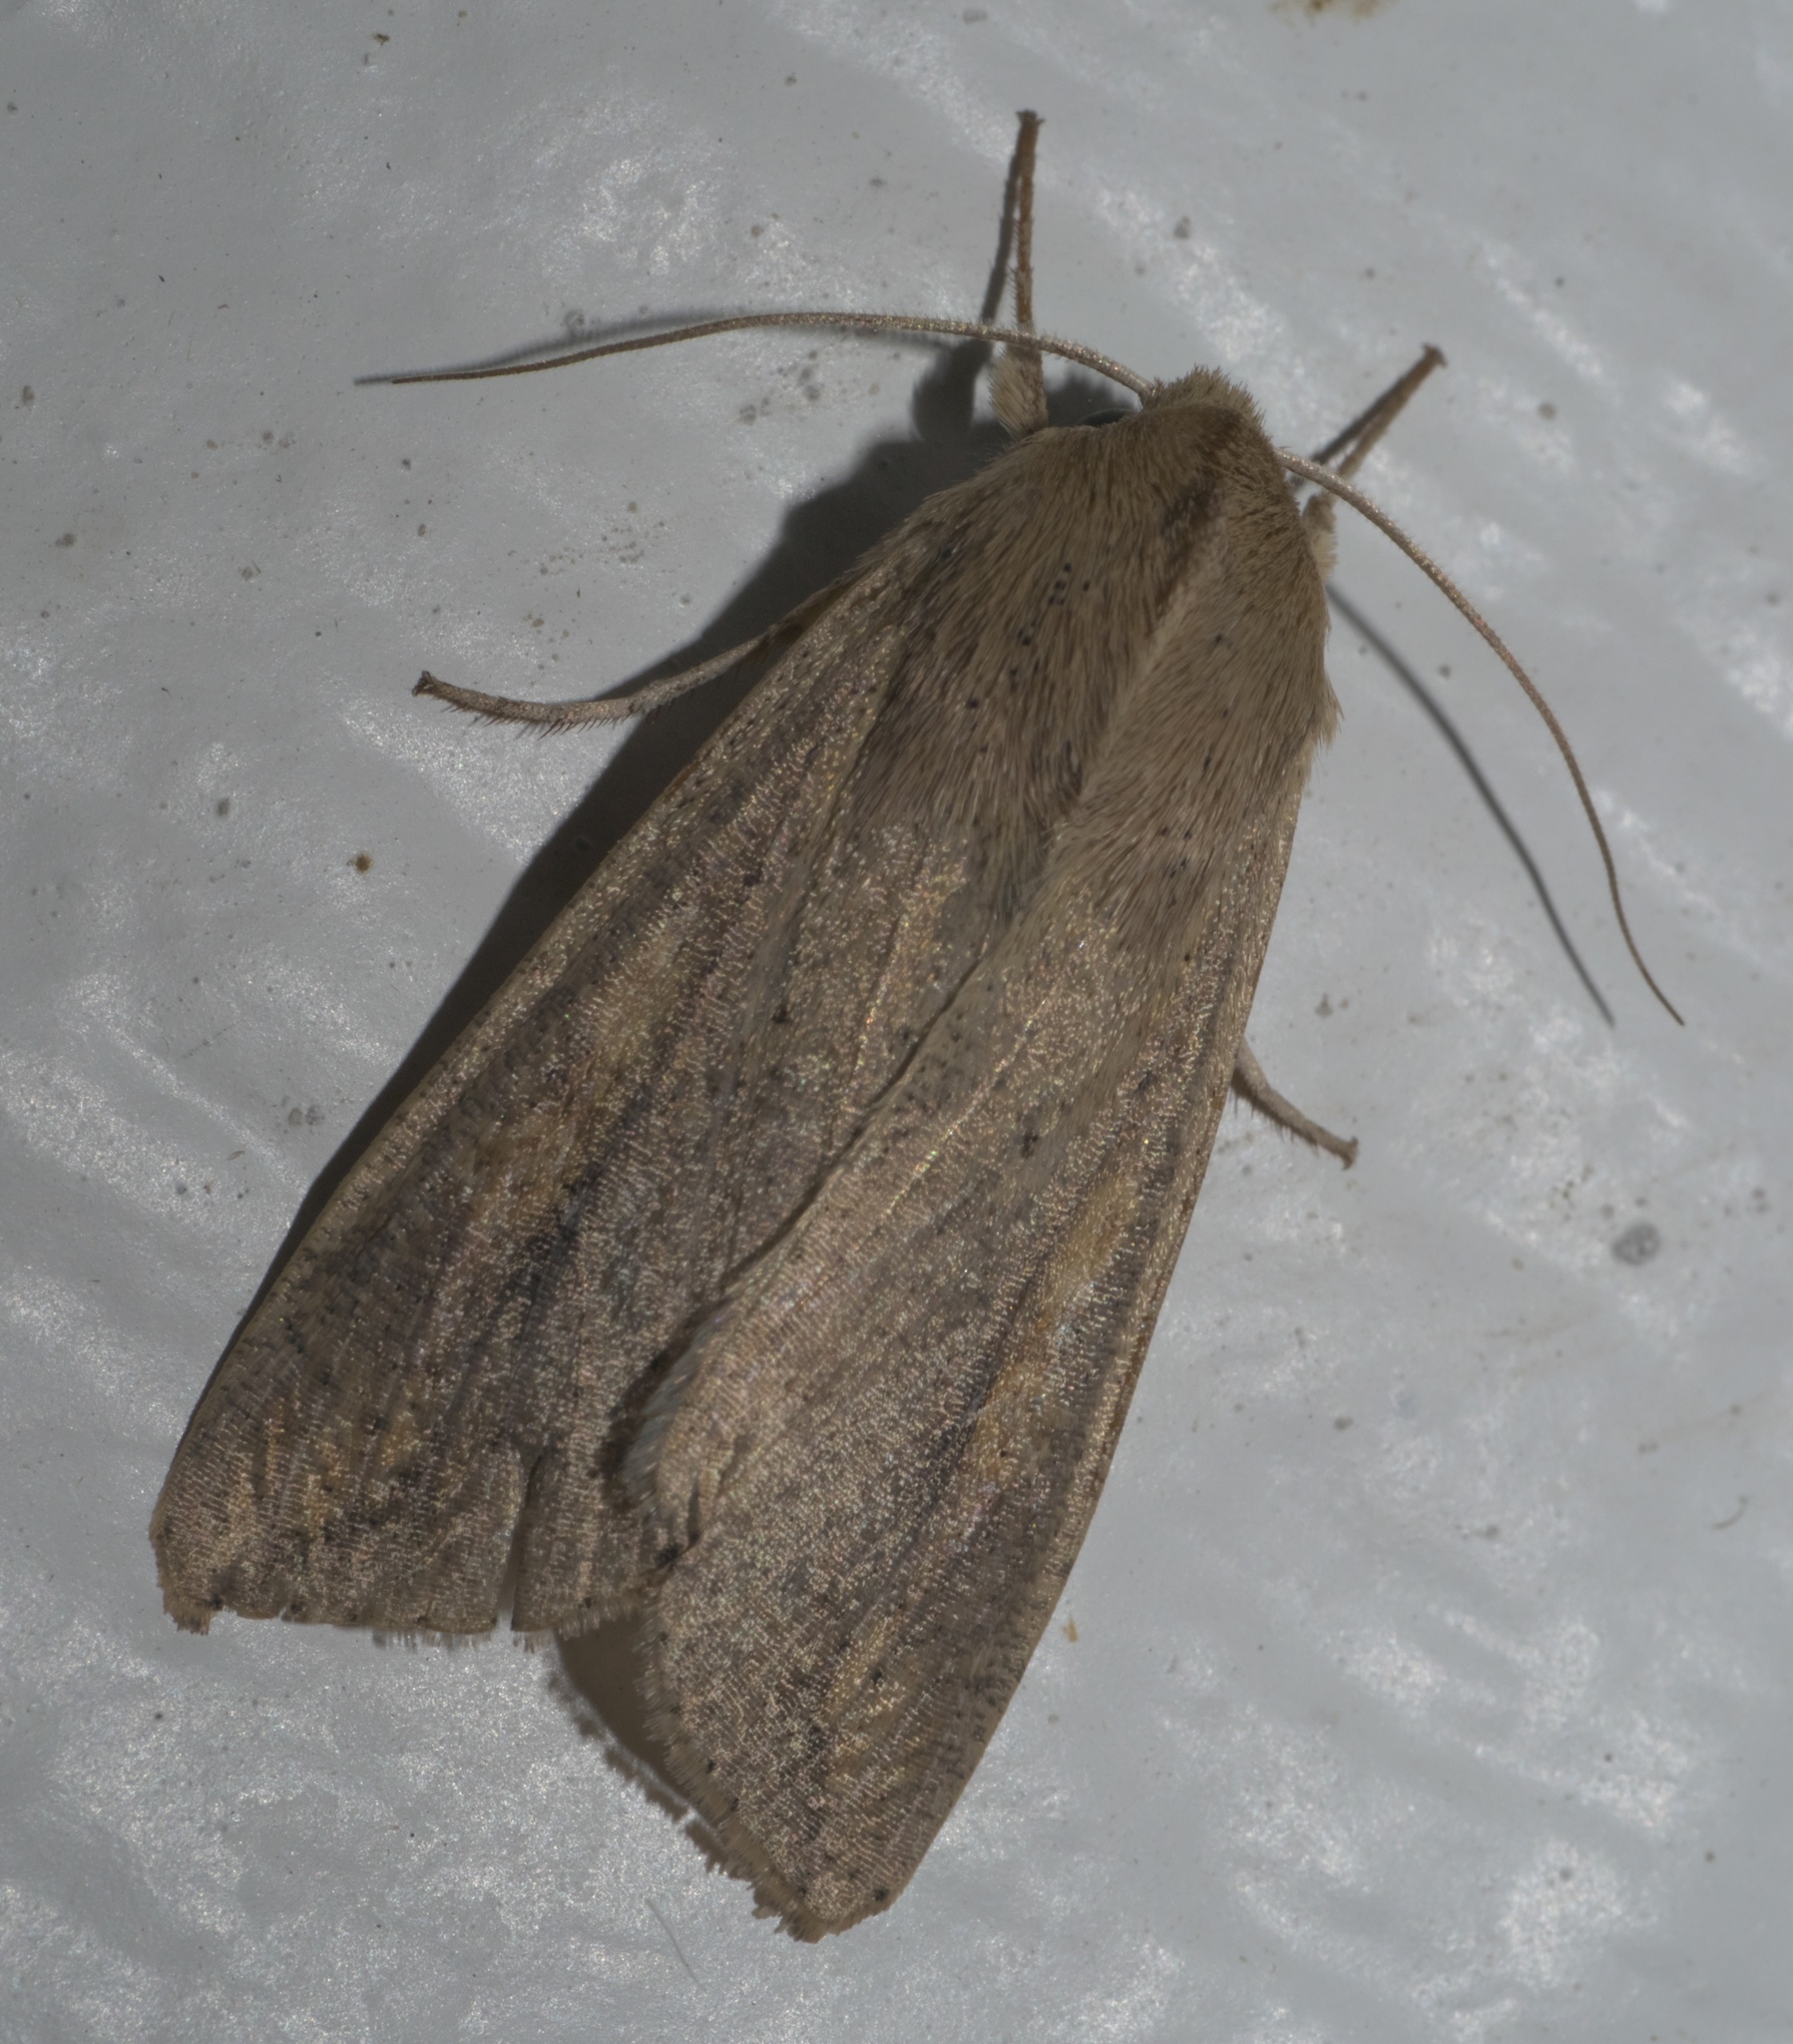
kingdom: Animalia
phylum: Arthropoda
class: Insecta
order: Lepidoptera
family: Noctuidae
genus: Mythimna
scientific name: Mythimna unipuncta
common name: White-speck
